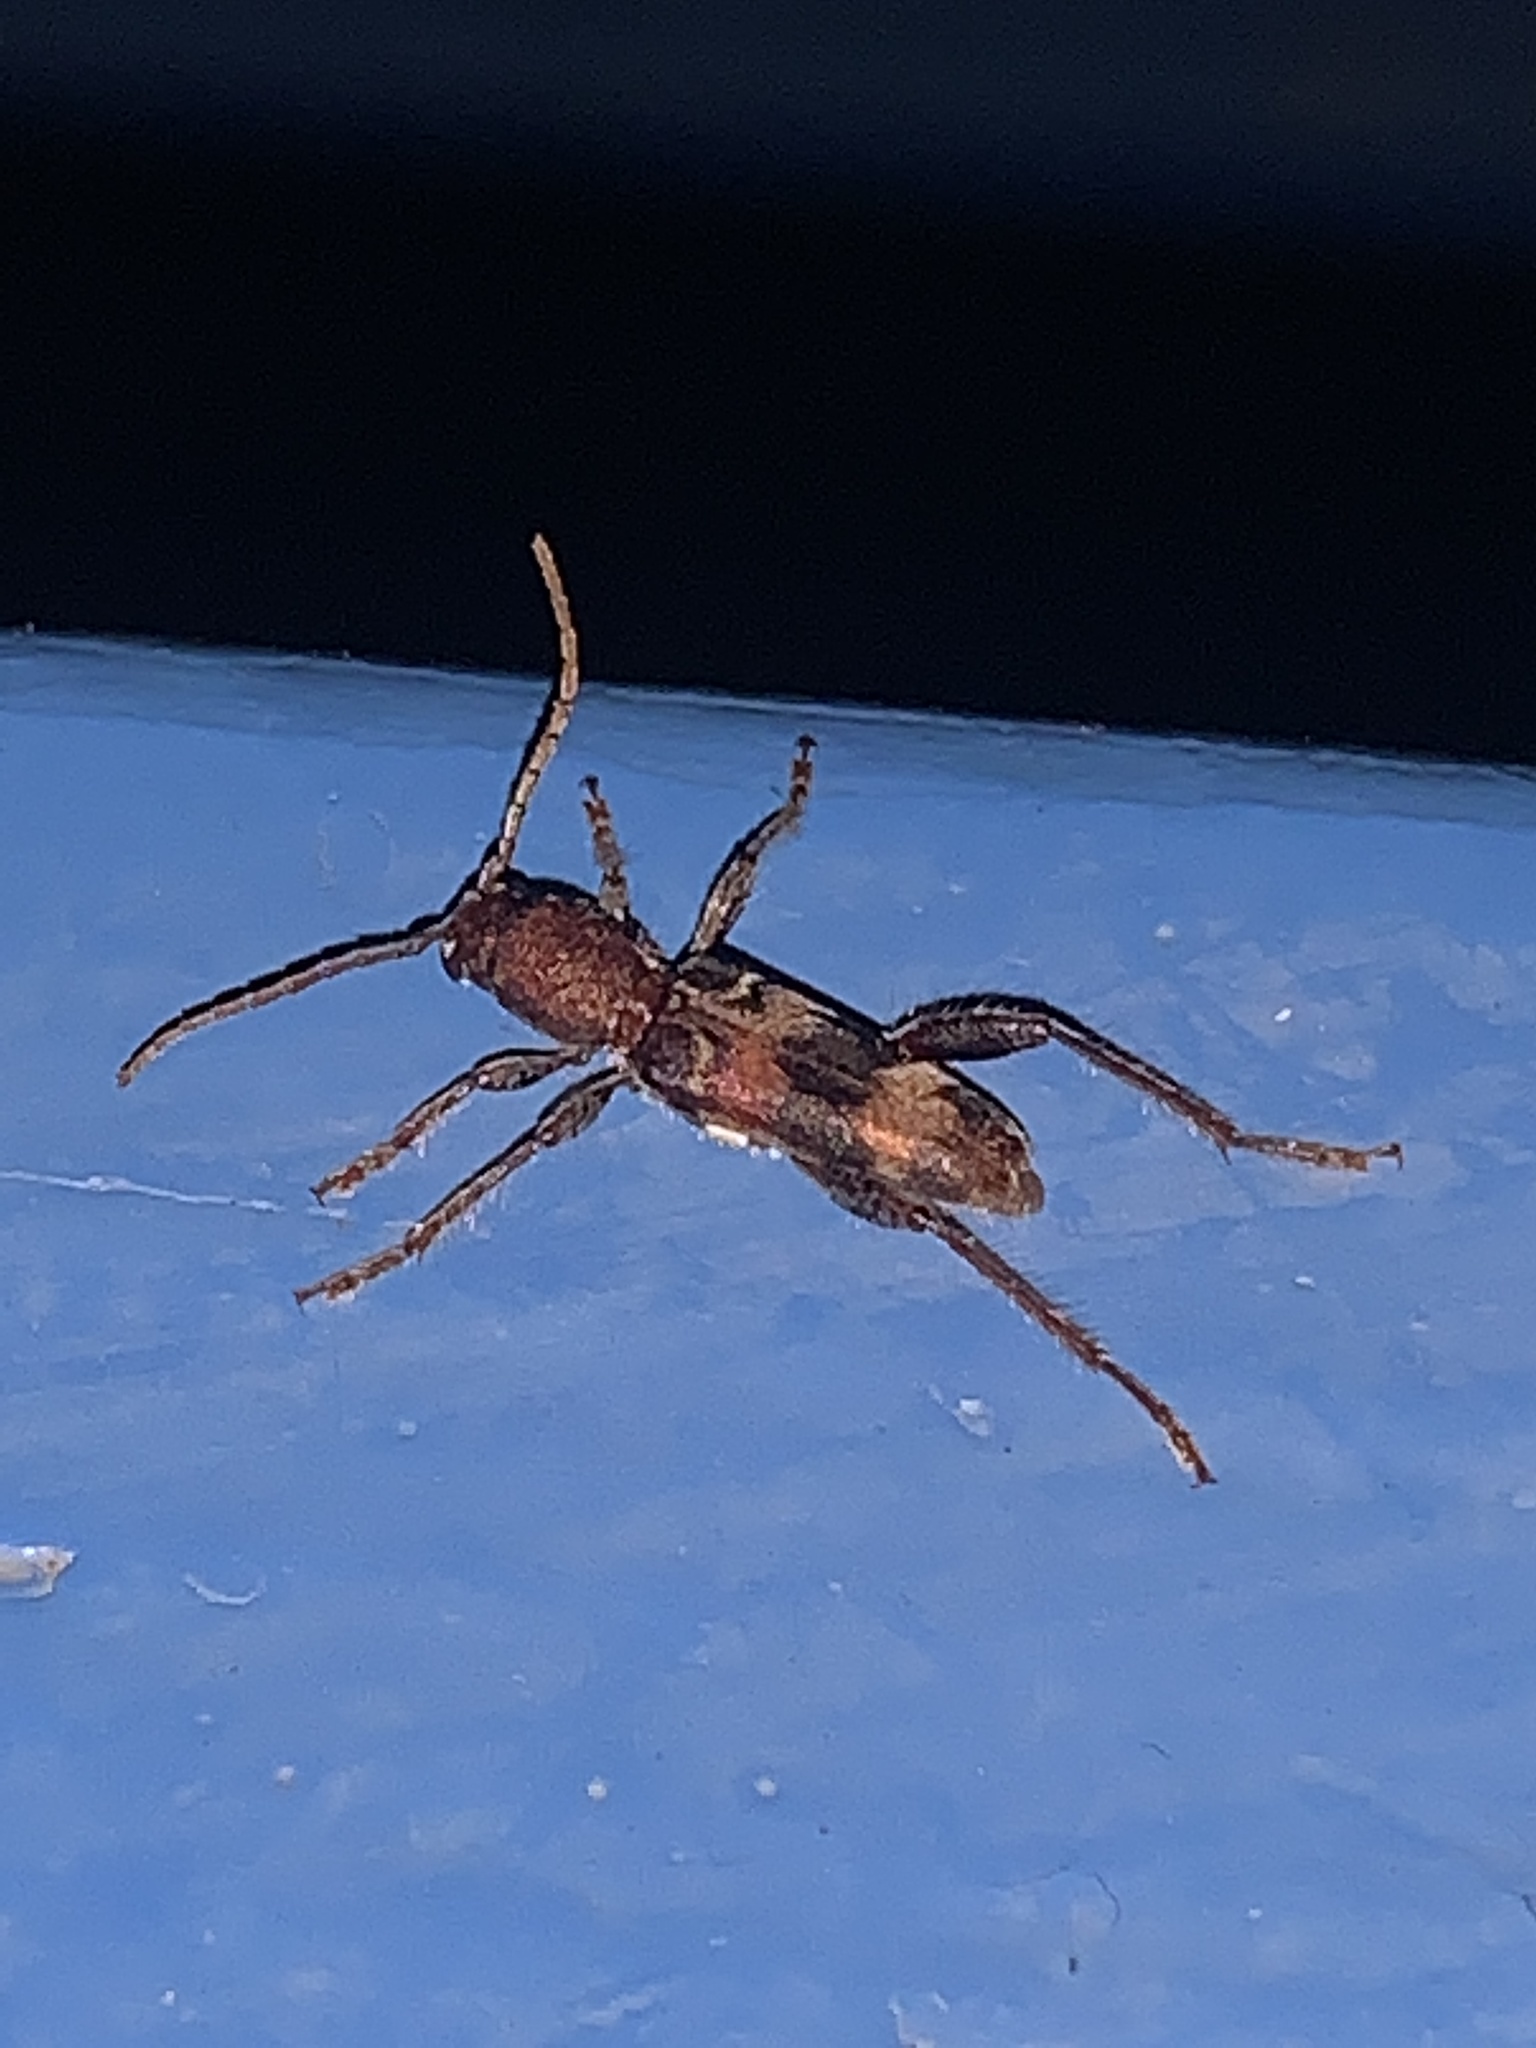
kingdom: Animalia
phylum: Arthropoda
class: Insecta
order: Coleoptera
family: Cerambycidae
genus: Xylotrechus
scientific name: Xylotrechus colonus
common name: Long-horned beetle
